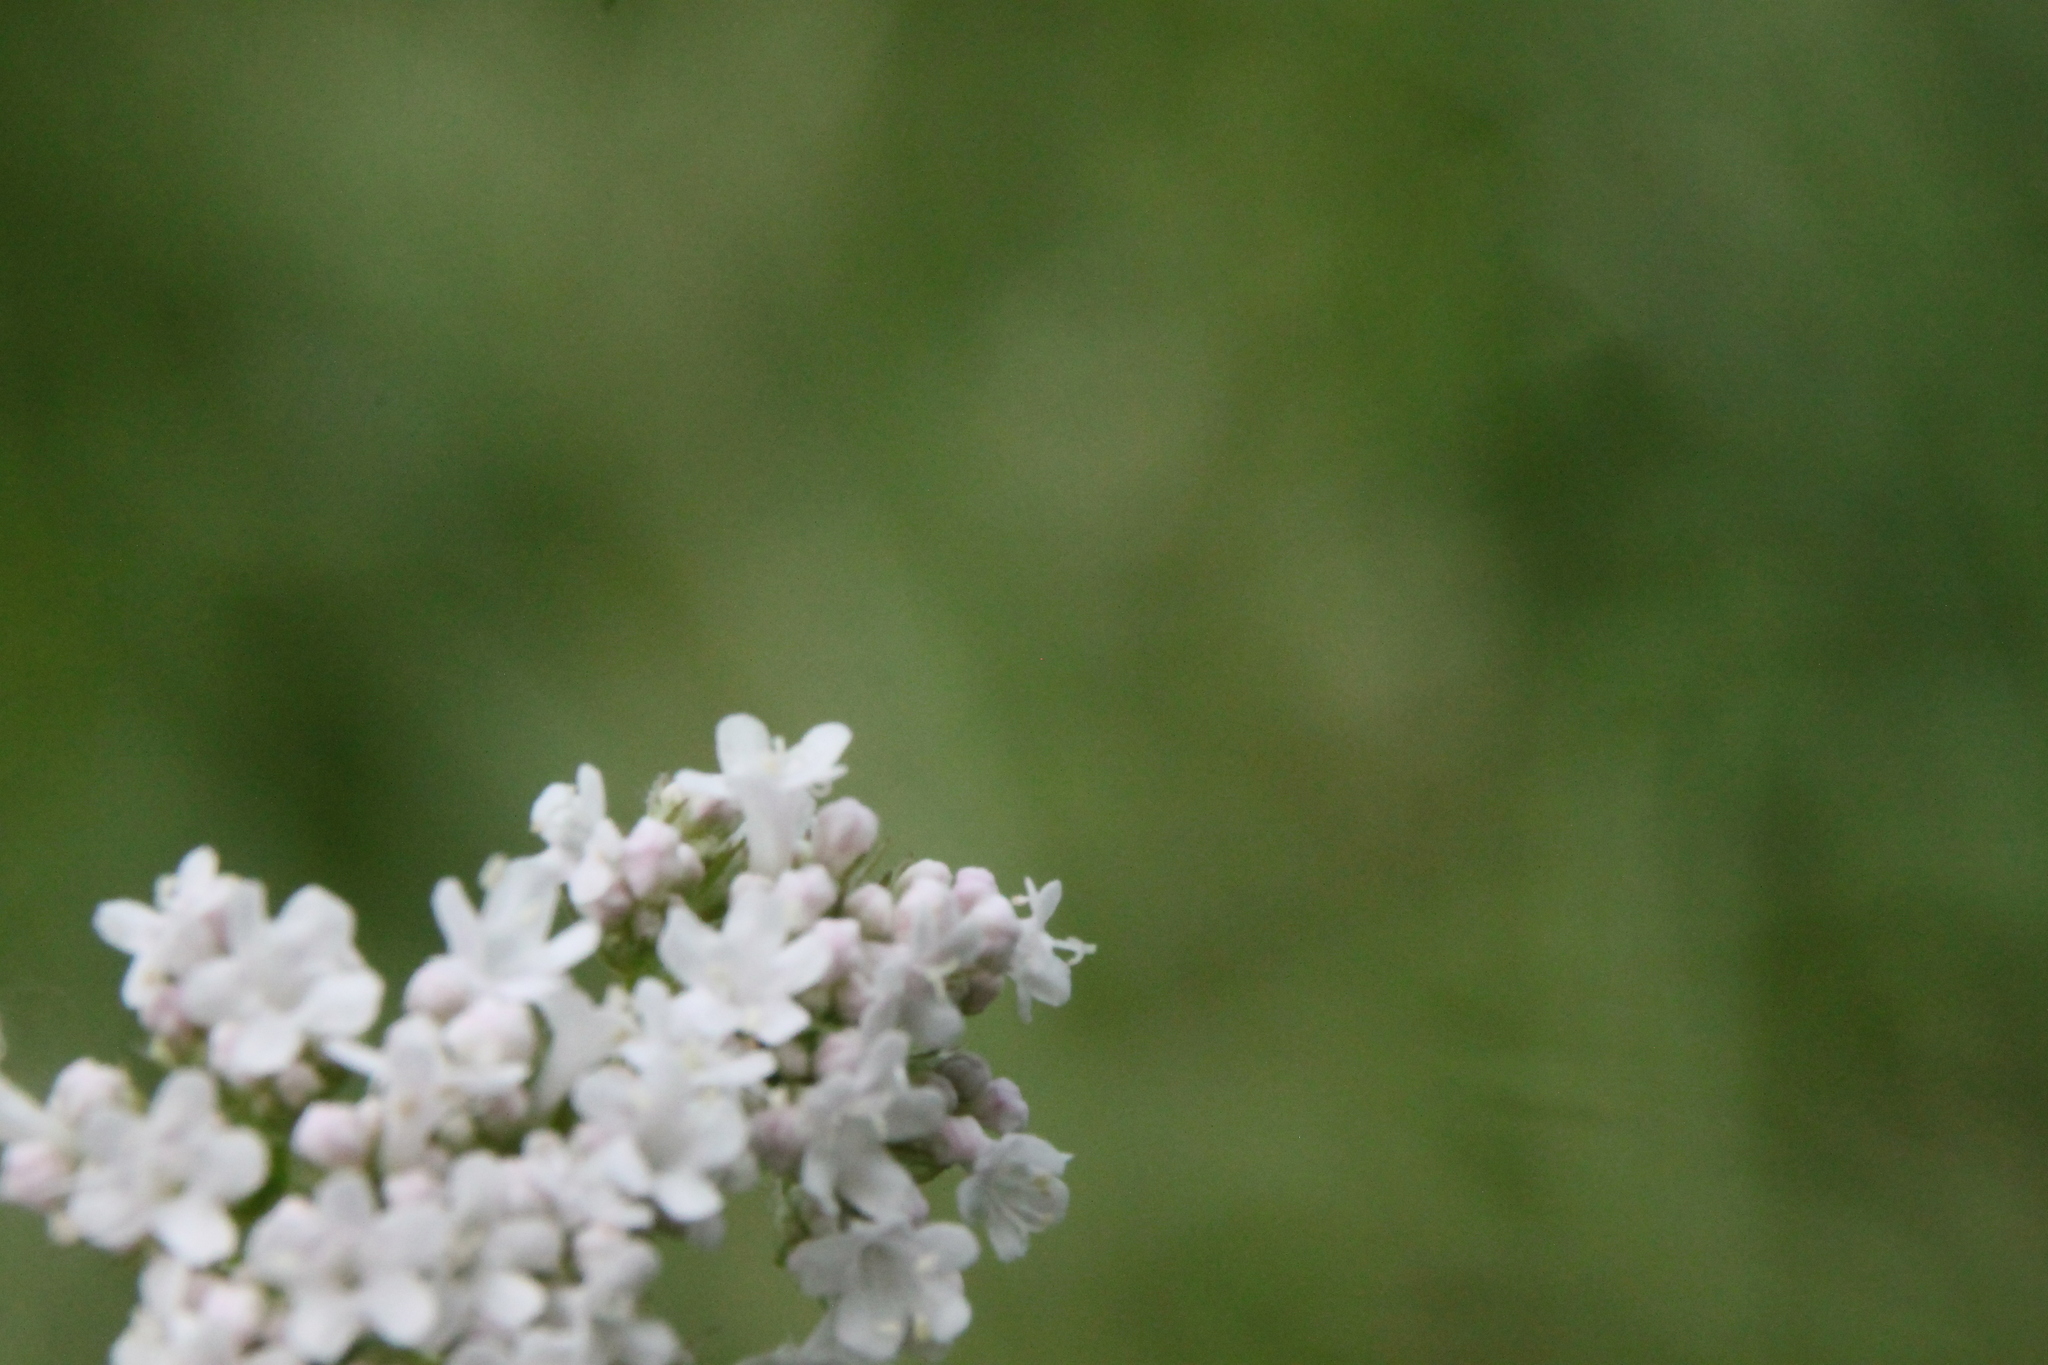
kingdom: Animalia
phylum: Arthropoda
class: Insecta
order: Coleoptera
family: Cerambycidae
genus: Lepturobosca
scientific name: Lepturobosca virens
